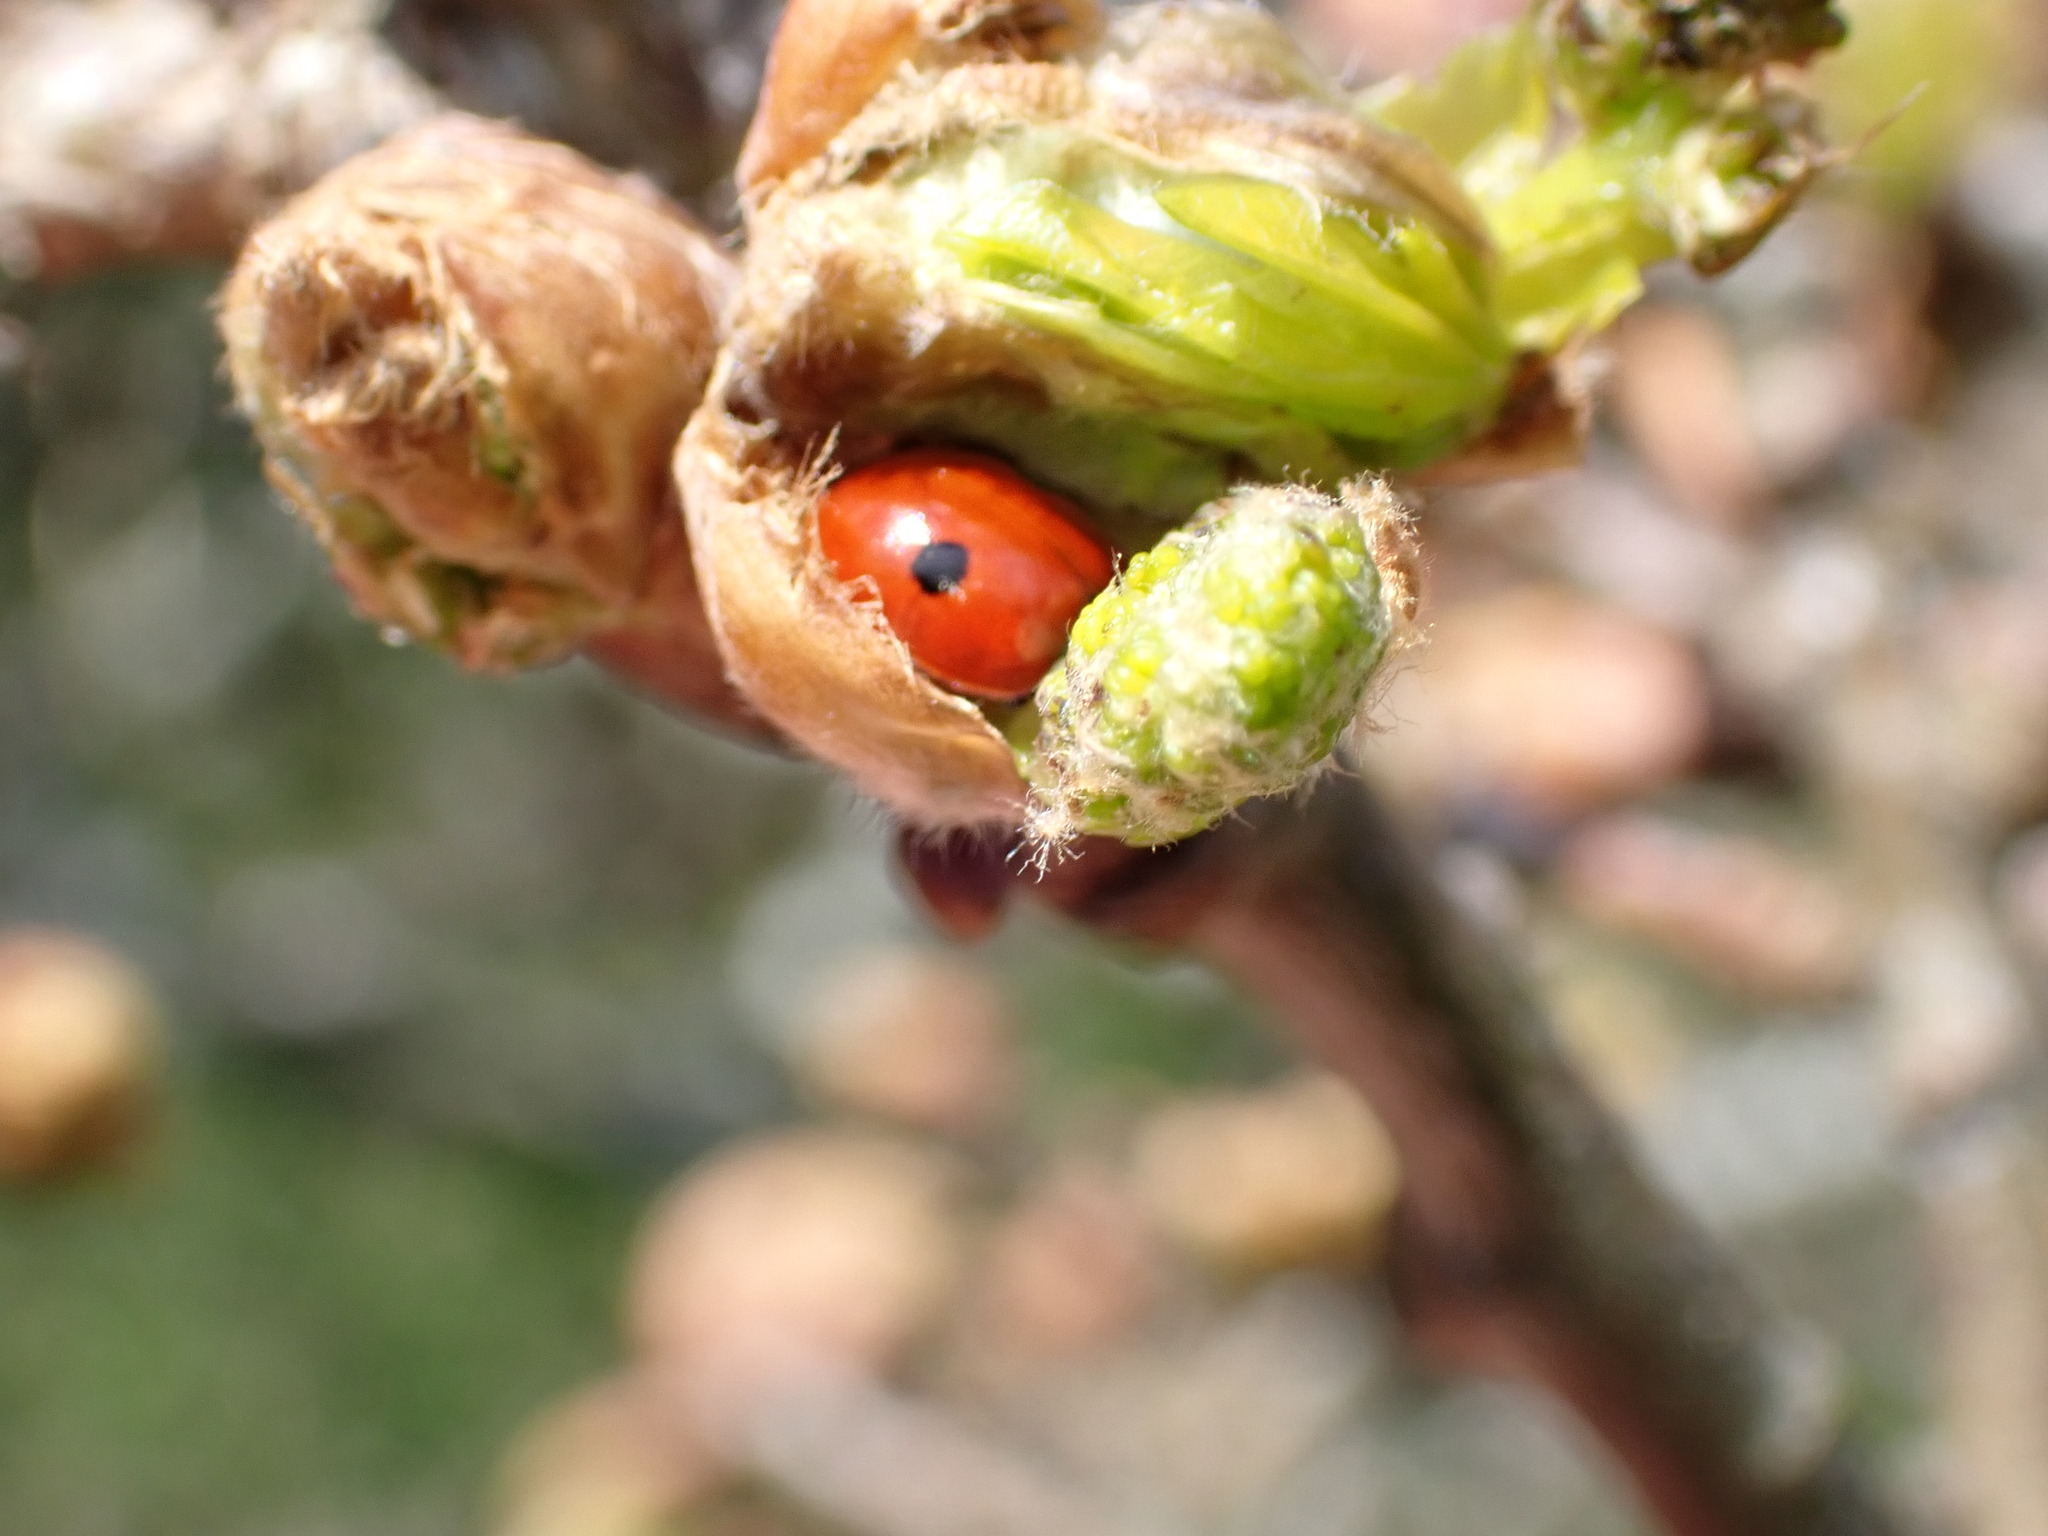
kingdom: Animalia
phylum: Arthropoda
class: Insecta
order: Coleoptera
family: Coccinellidae
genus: Adalia
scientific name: Adalia bipunctata
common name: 2-spot ladybird
